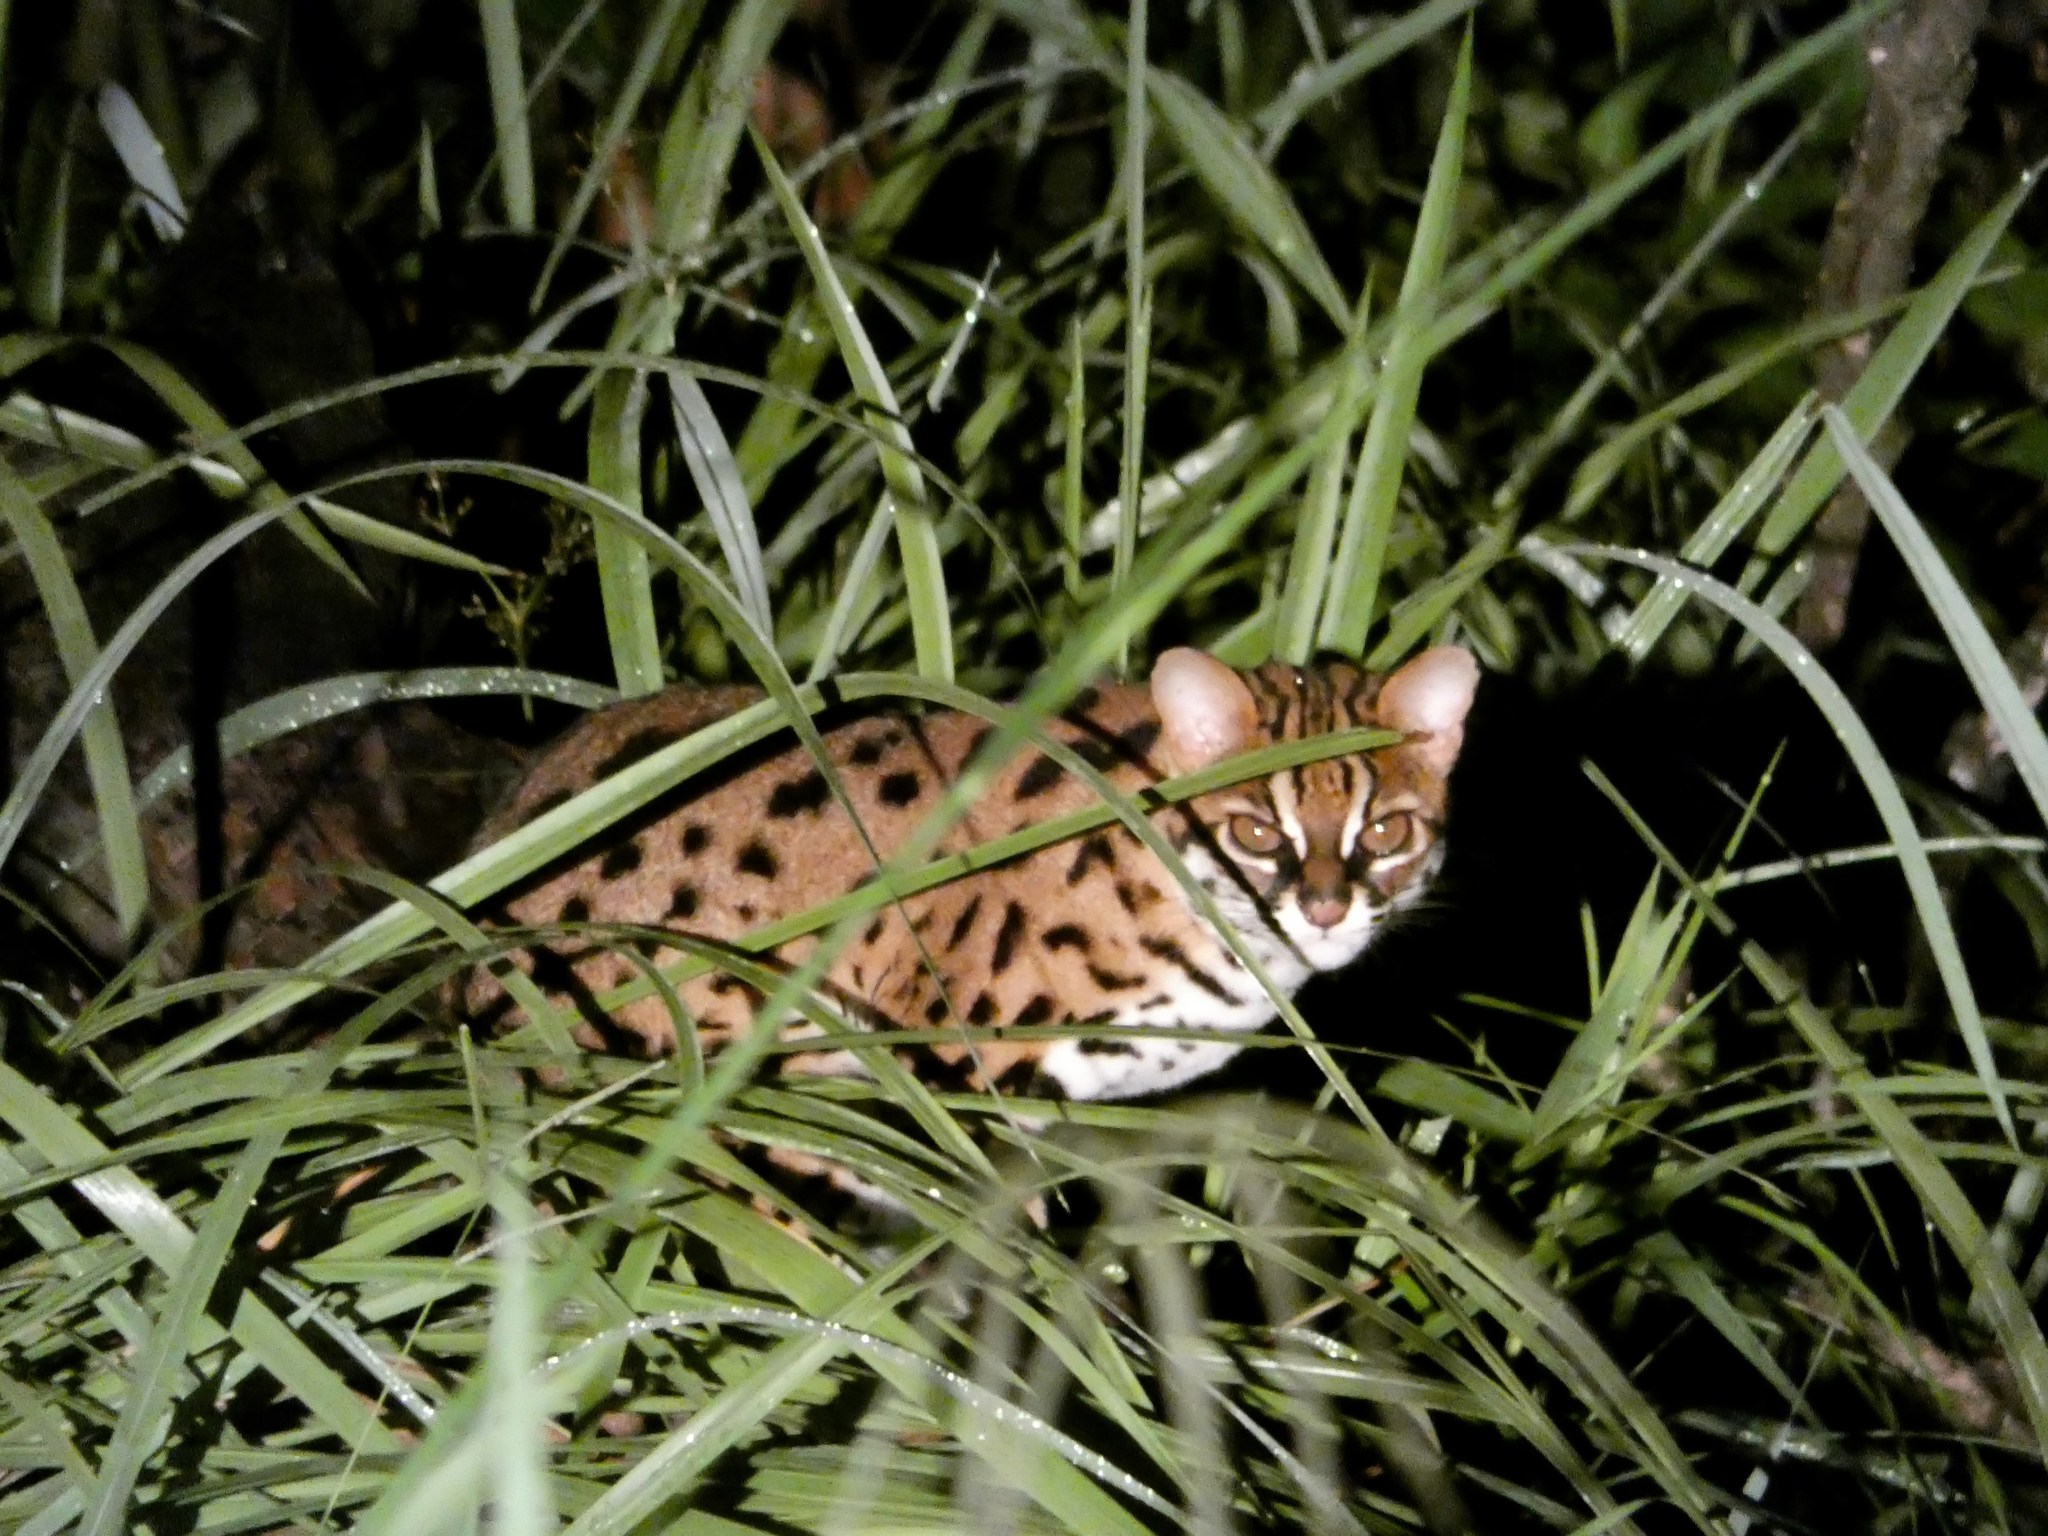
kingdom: Animalia
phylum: Chordata
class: Mammalia
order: Carnivora
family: Felidae
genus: Prionailurus
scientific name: Prionailurus bengalensis
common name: Leopard cat
